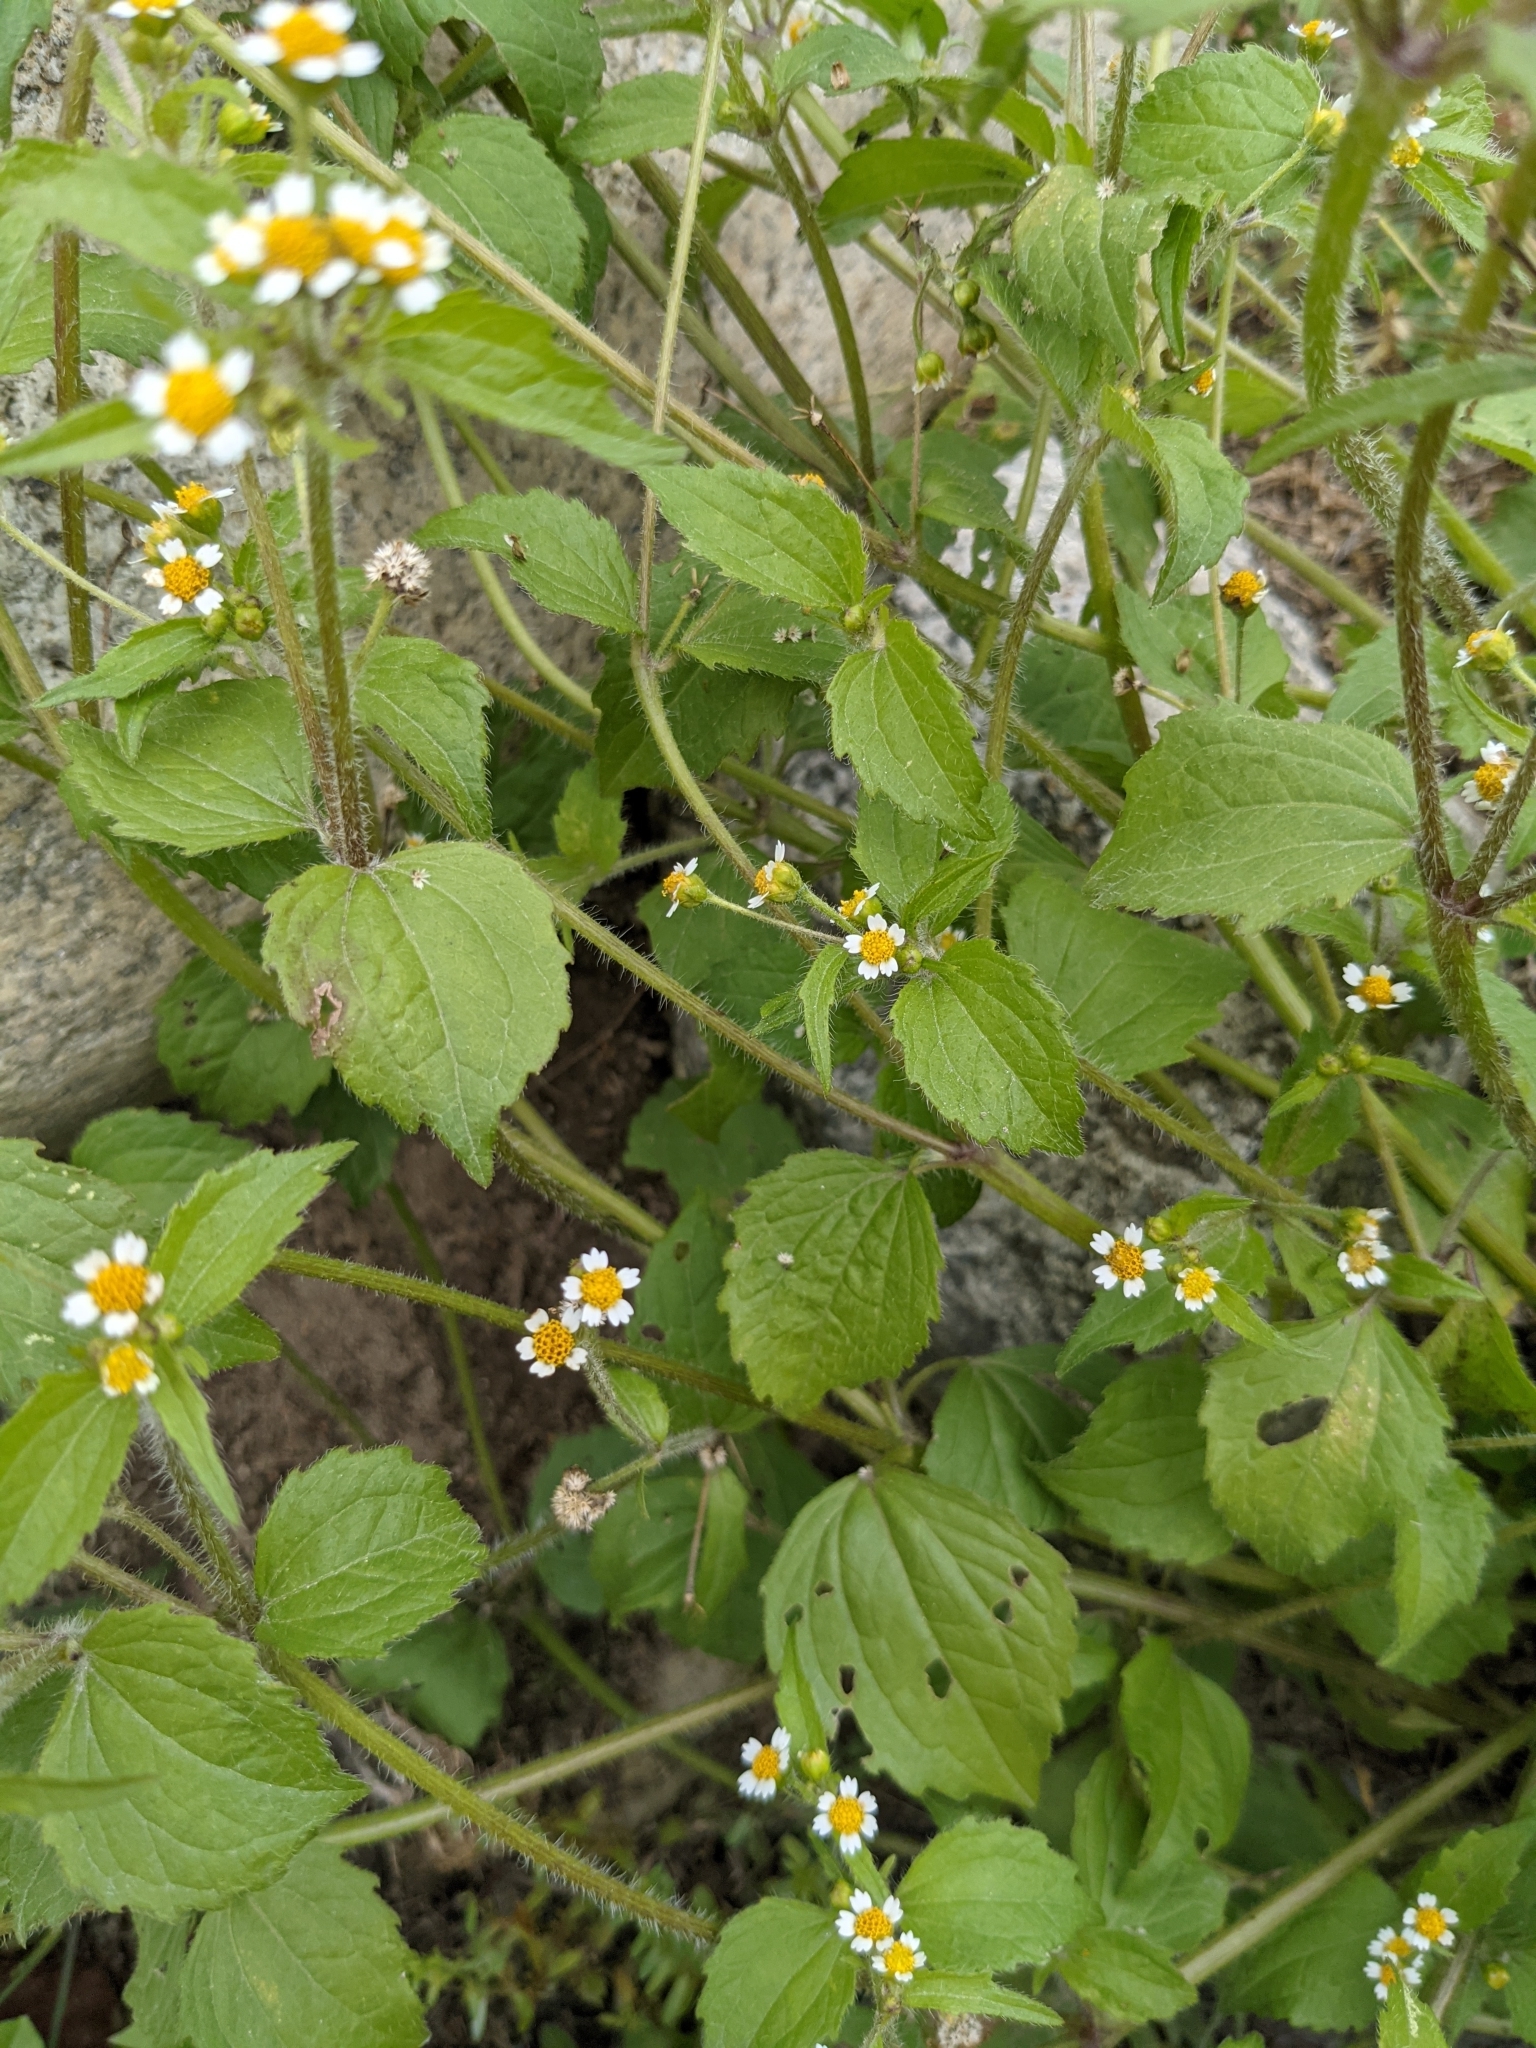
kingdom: Plantae
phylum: Tracheophyta
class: Magnoliopsida
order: Asterales
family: Asteraceae
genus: Galinsoga
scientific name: Galinsoga parviflora
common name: Gallant soldier
